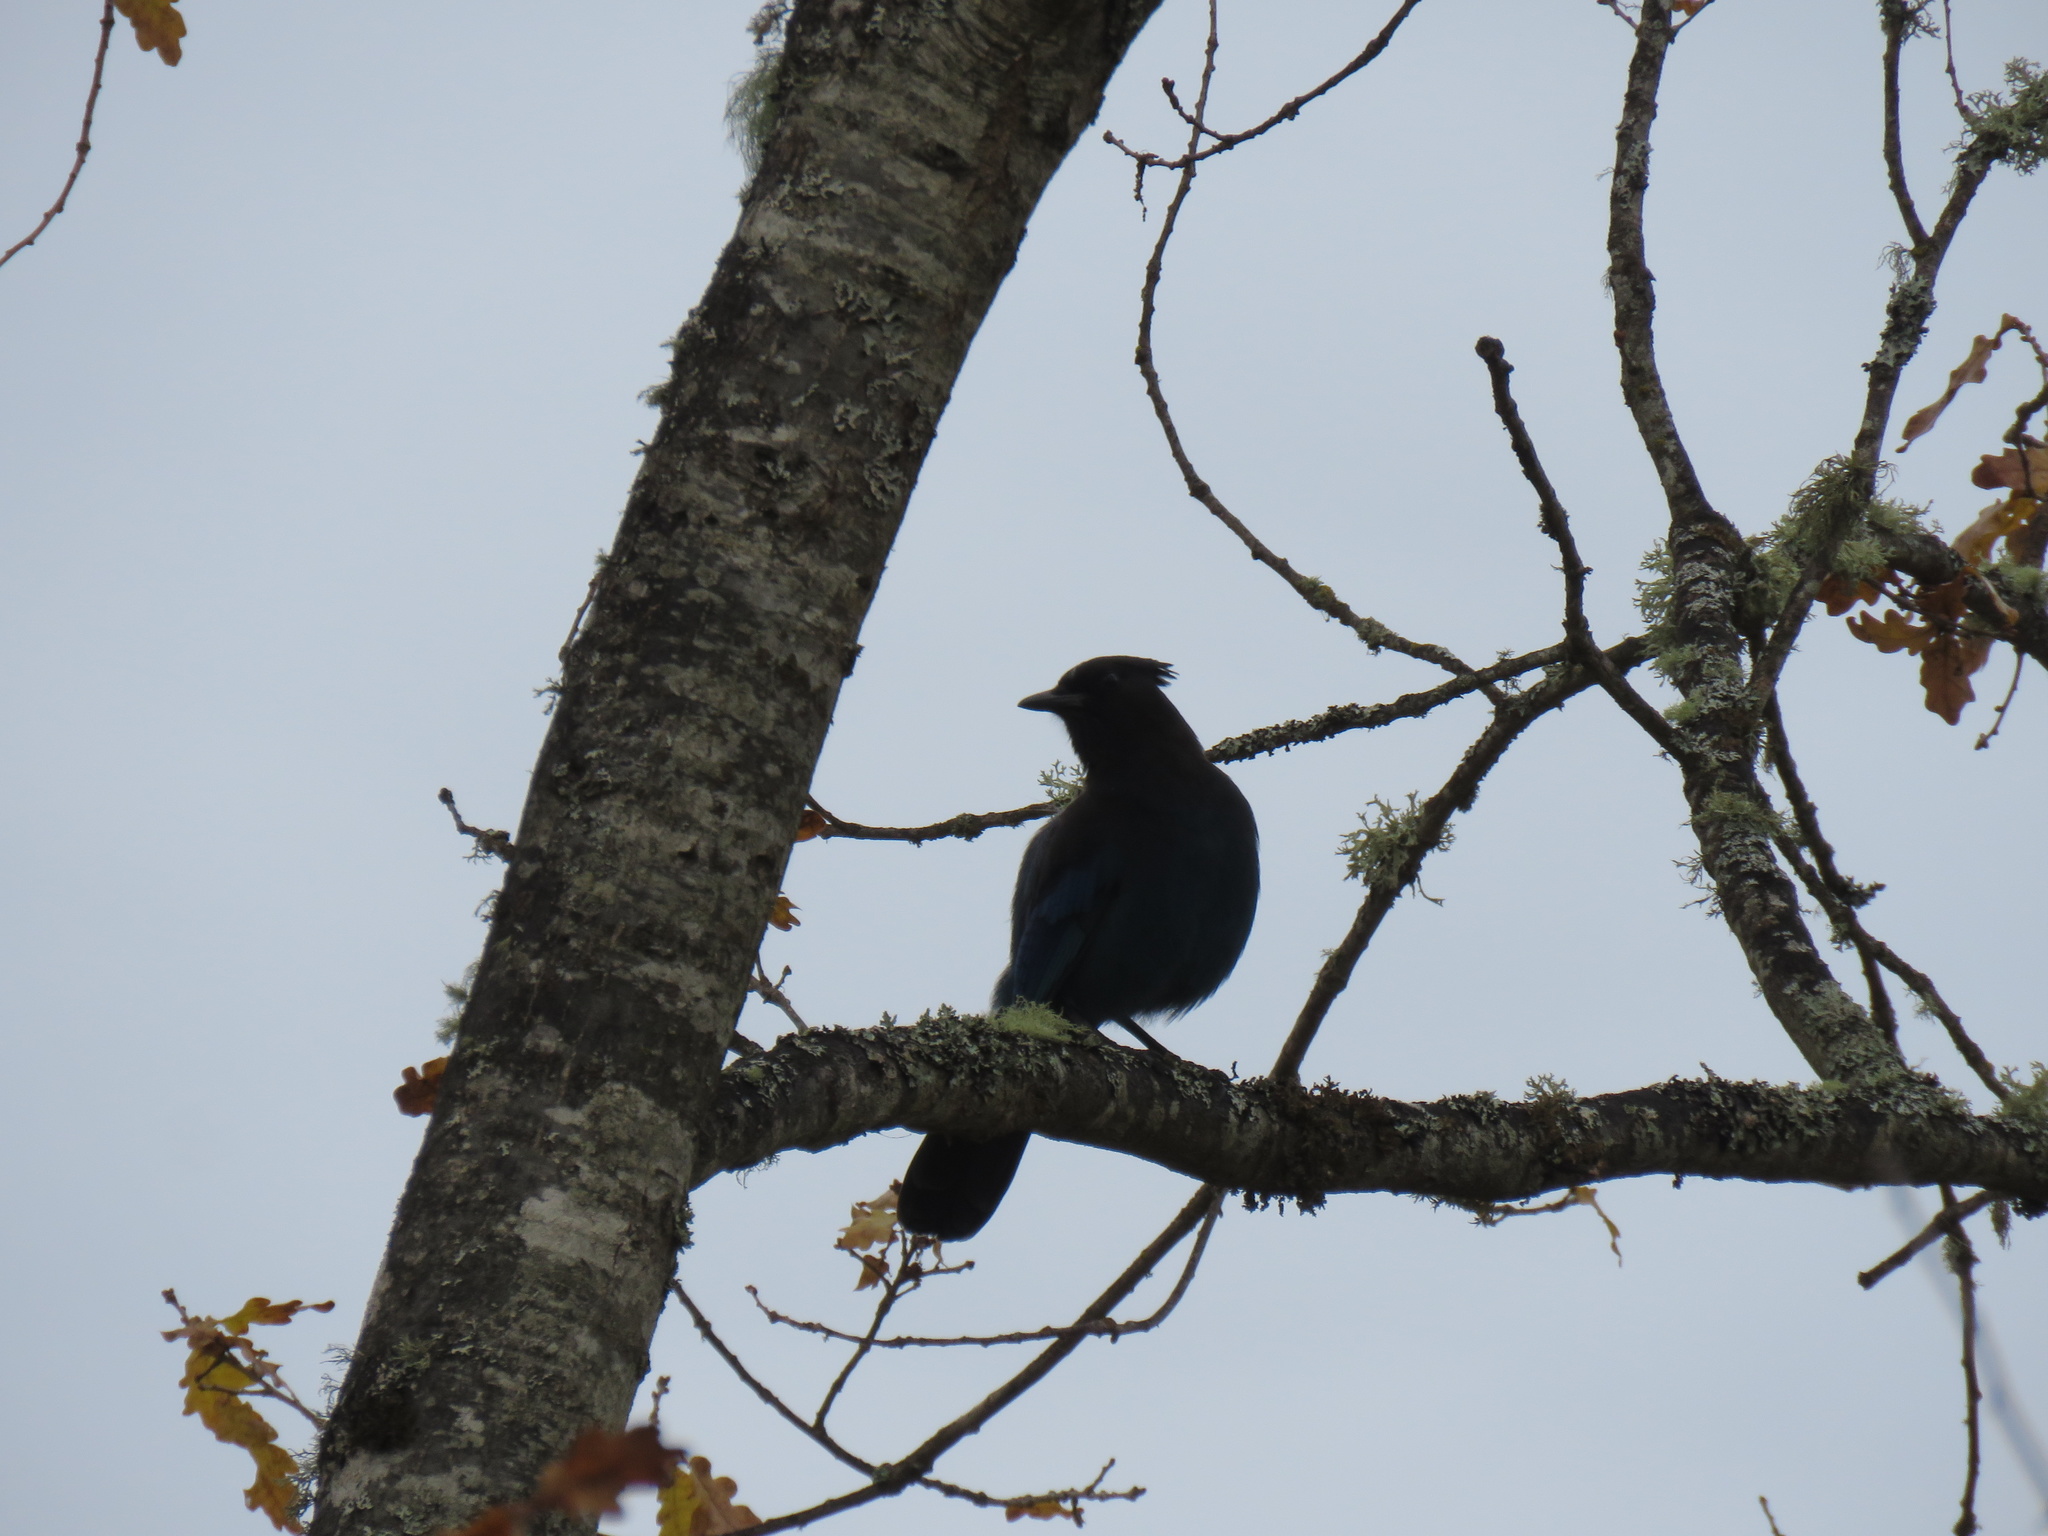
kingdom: Animalia
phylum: Chordata
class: Aves
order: Passeriformes
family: Corvidae
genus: Cyanocitta
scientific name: Cyanocitta stelleri
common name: Steller's jay
